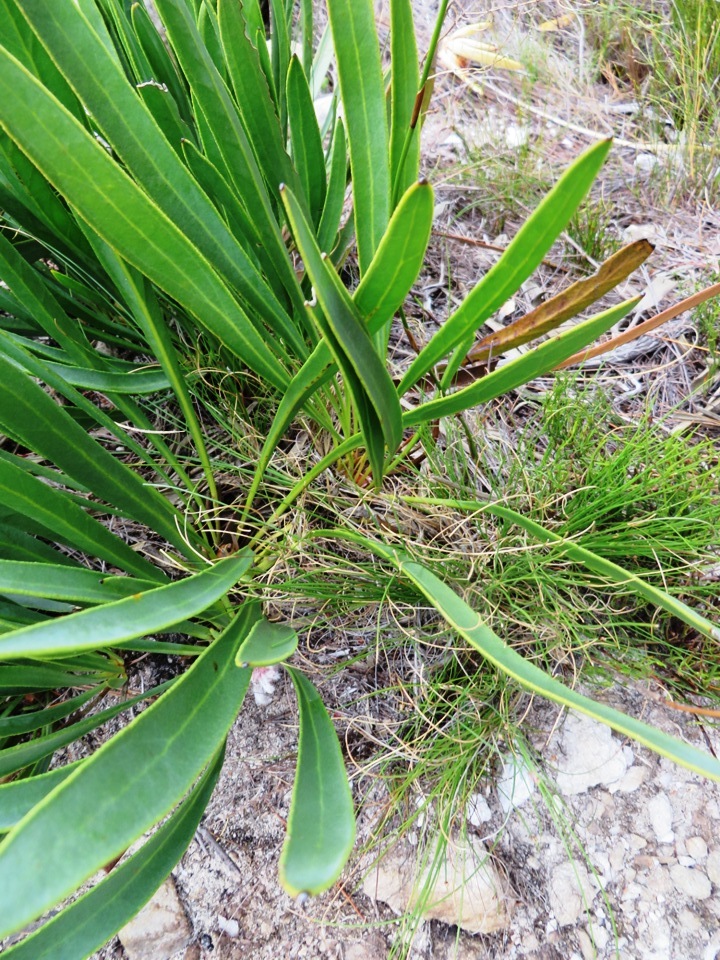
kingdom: Plantae
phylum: Tracheophyta
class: Magnoliopsida
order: Proteales
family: Proteaceae
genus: Protea
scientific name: Protea scabra
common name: Sandpaper-leaf sugarbush
